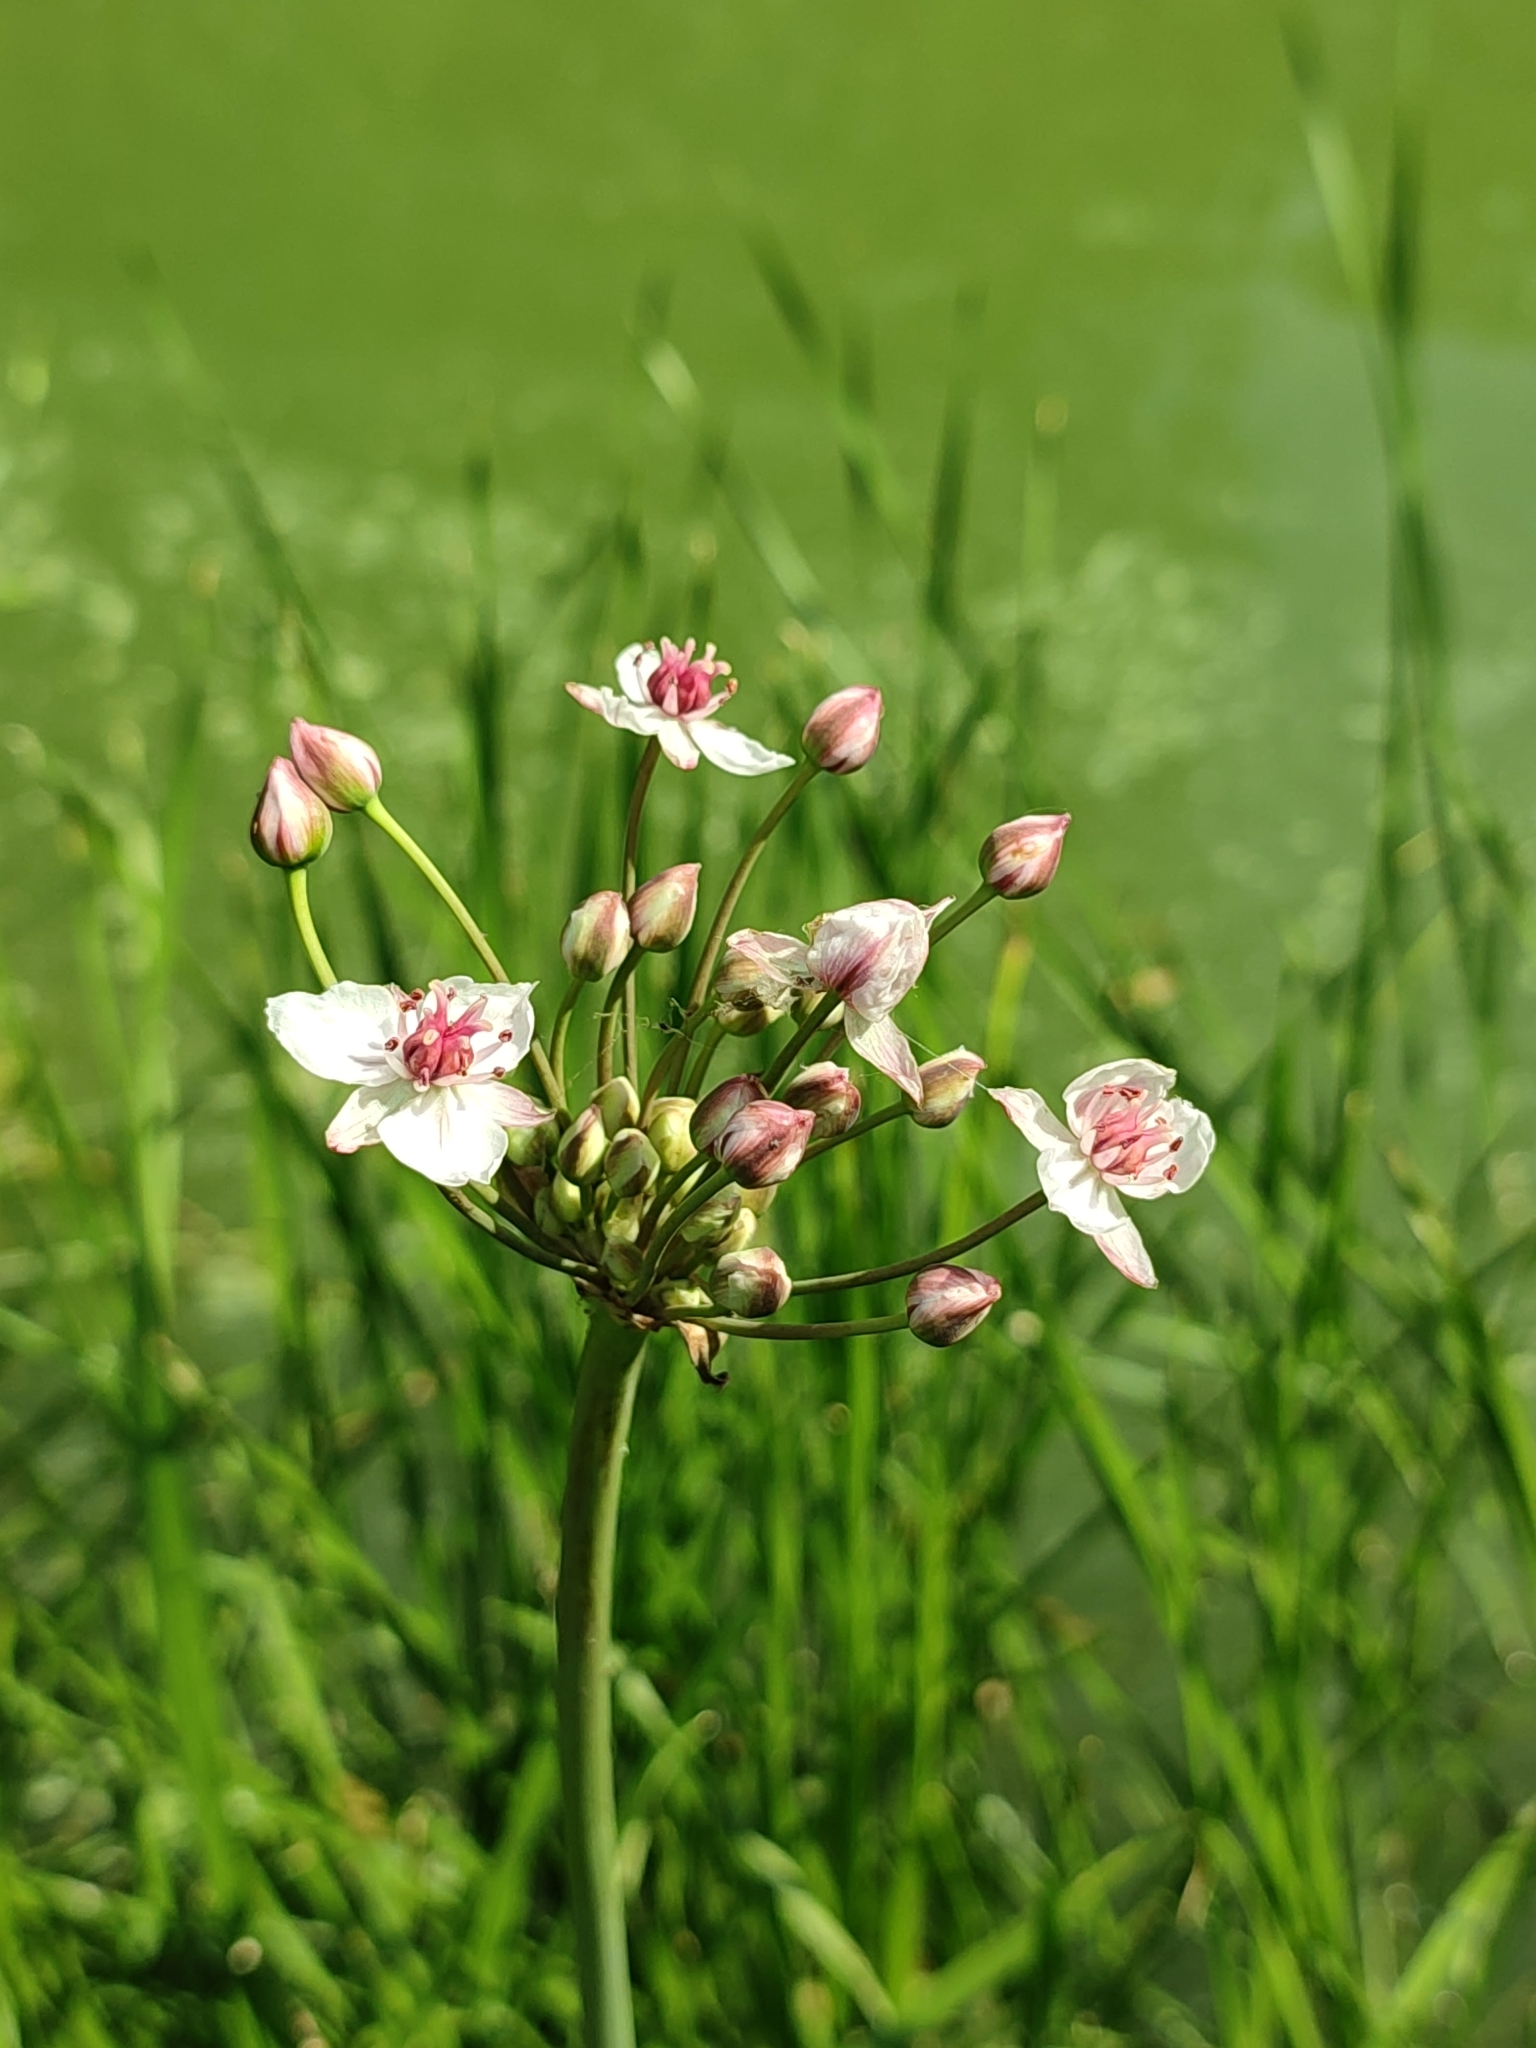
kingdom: Plantae
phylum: Tracheophyta
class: Liliopsida
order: Alismatales
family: Butomaceae
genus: Butomus
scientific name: Butomus umbellatus
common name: Flowering-rush
